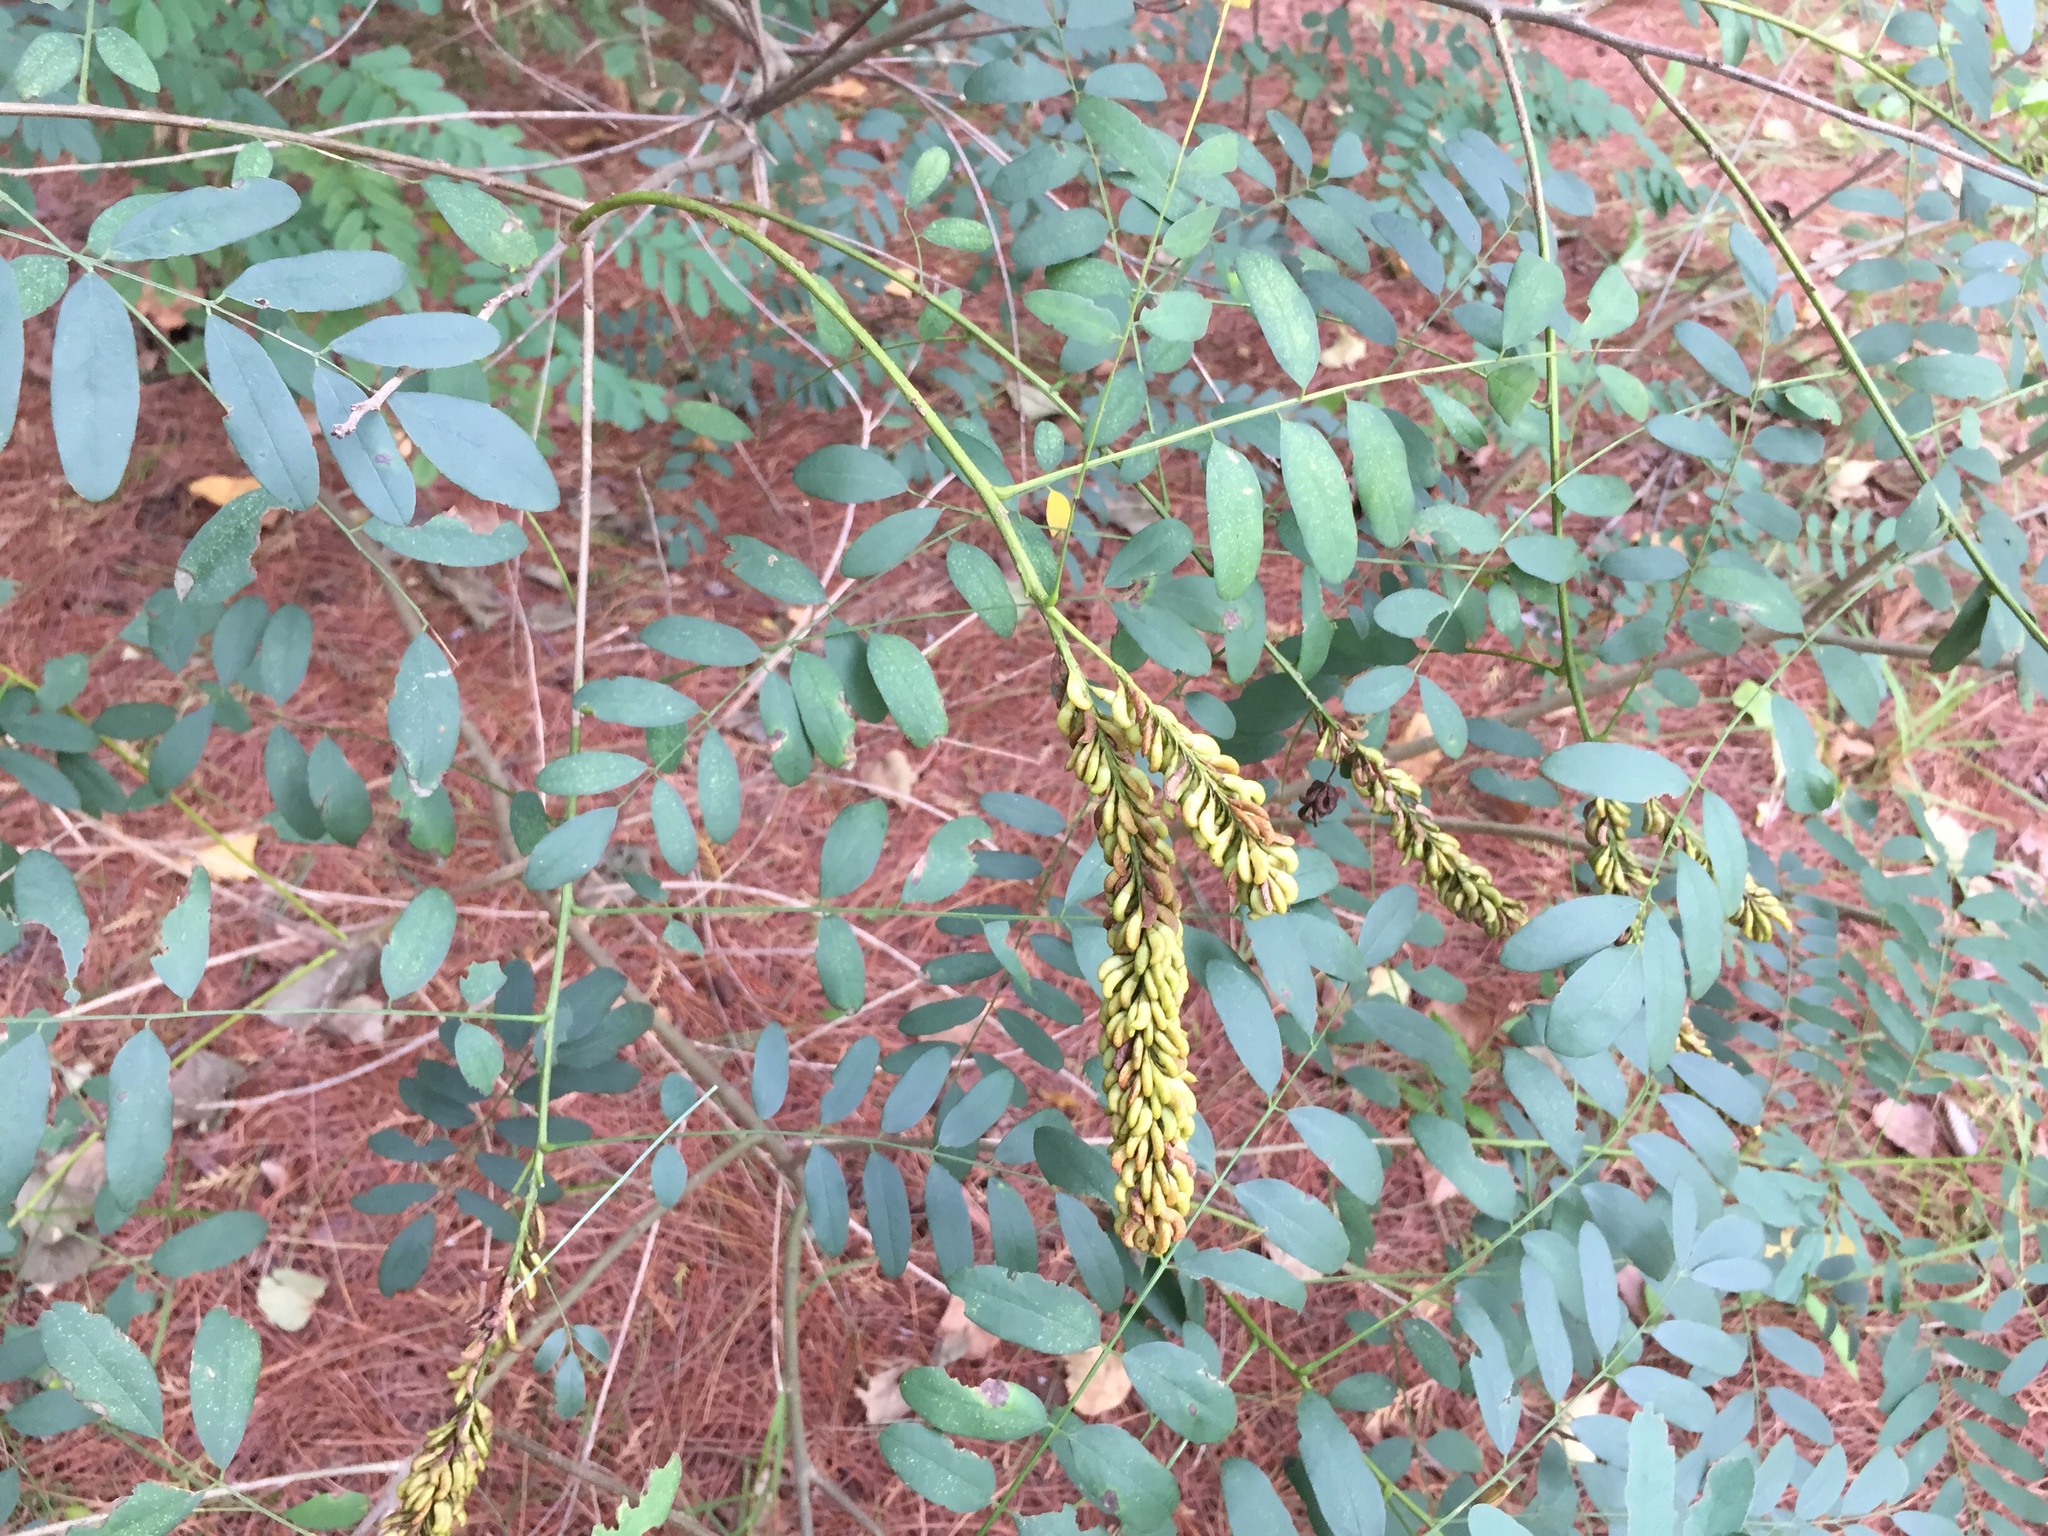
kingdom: Plantae
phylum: Tracheophyta
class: Magnoliopsida
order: Fabales
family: Fabaceae
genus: Amorpha
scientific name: Amorpha fruticosa
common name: False indigo
